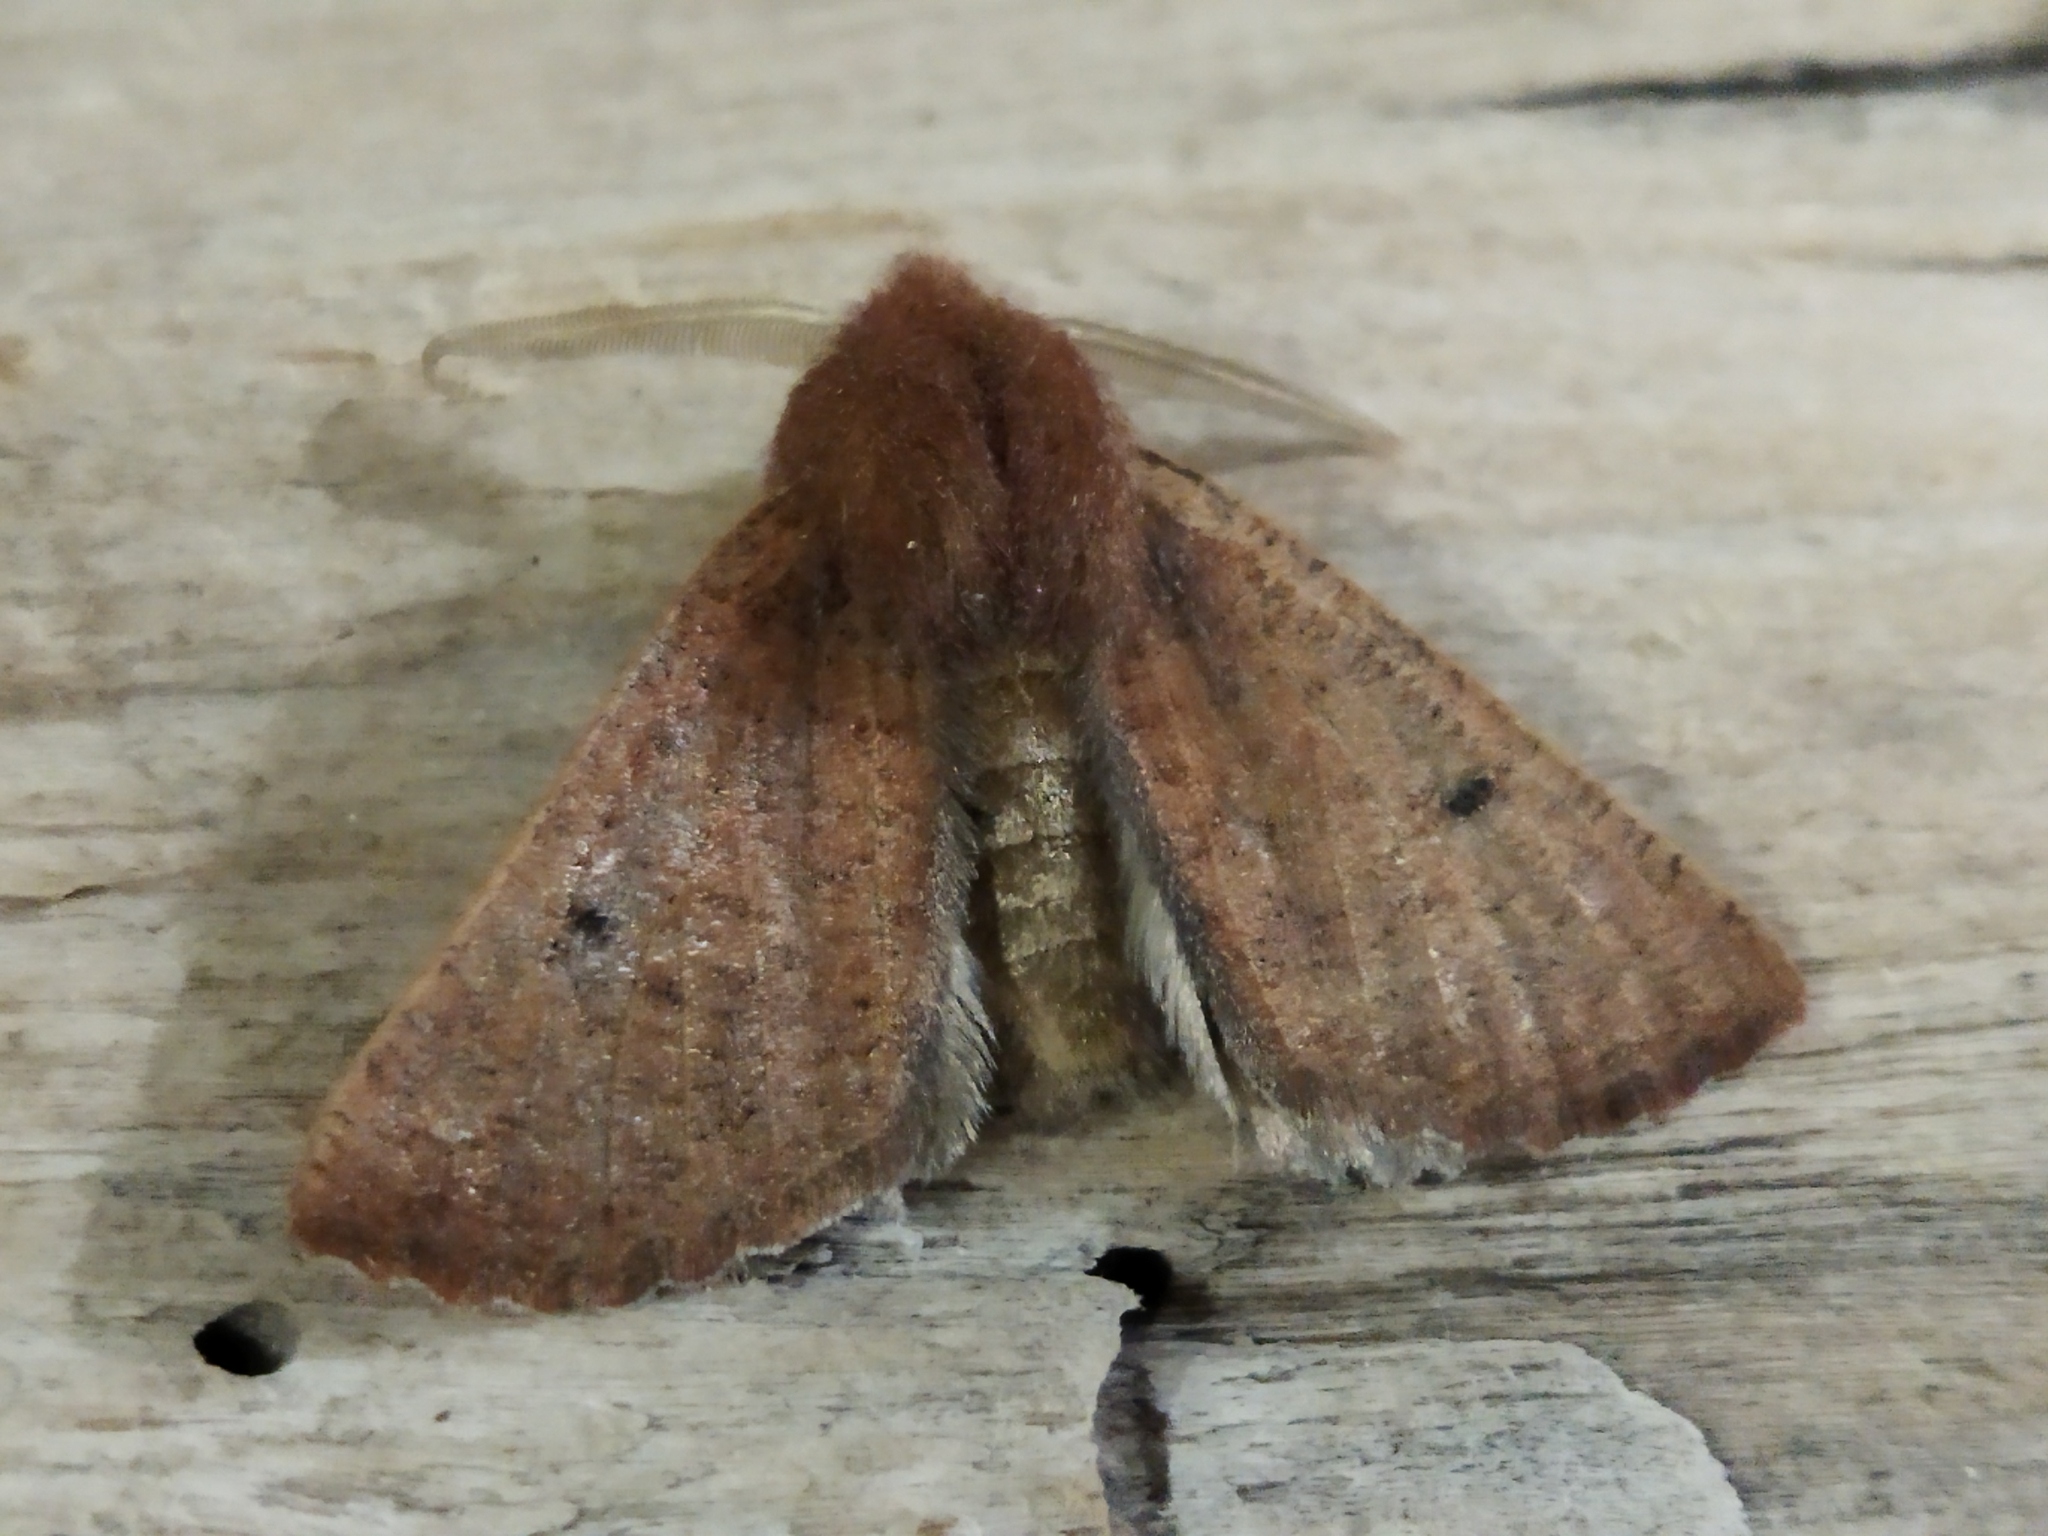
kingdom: Animalia
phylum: Arthropoda
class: Insecta
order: Lepidoptera
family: Geometridae
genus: Dasycorsa
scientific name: Dasycorsa modesta
